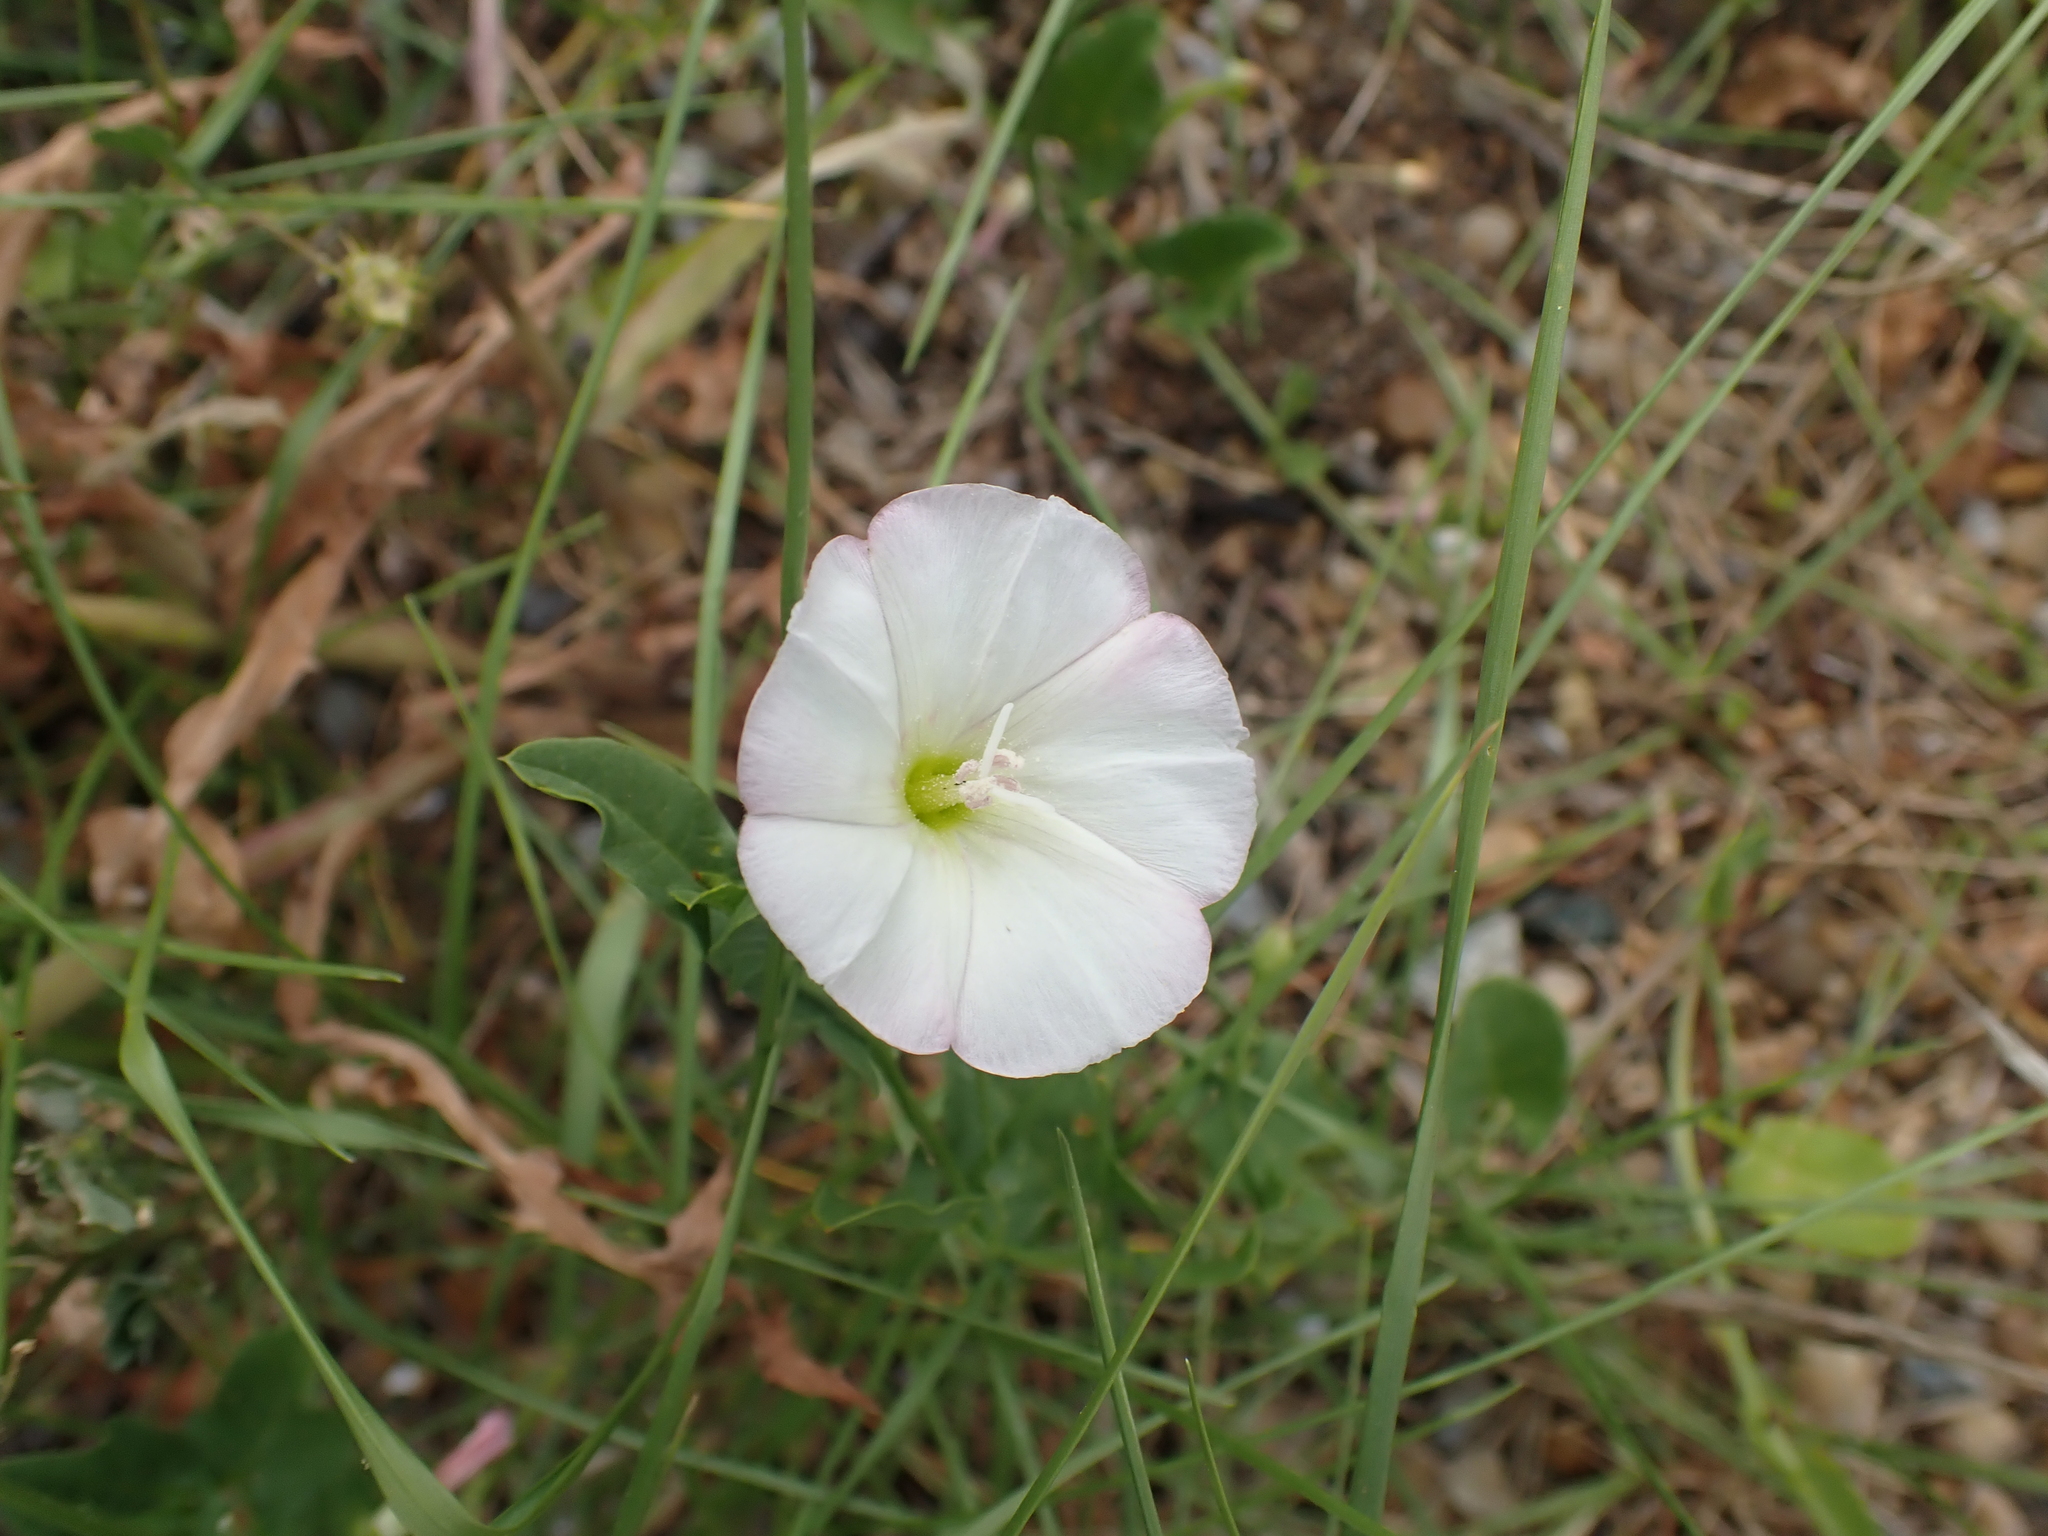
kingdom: Plantae
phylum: Tracheophyta
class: Magnoliopsida
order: Solanales
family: Convolvulaceae
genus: Convolvulus
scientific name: Convolvulus arvensis
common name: Field bindweed
